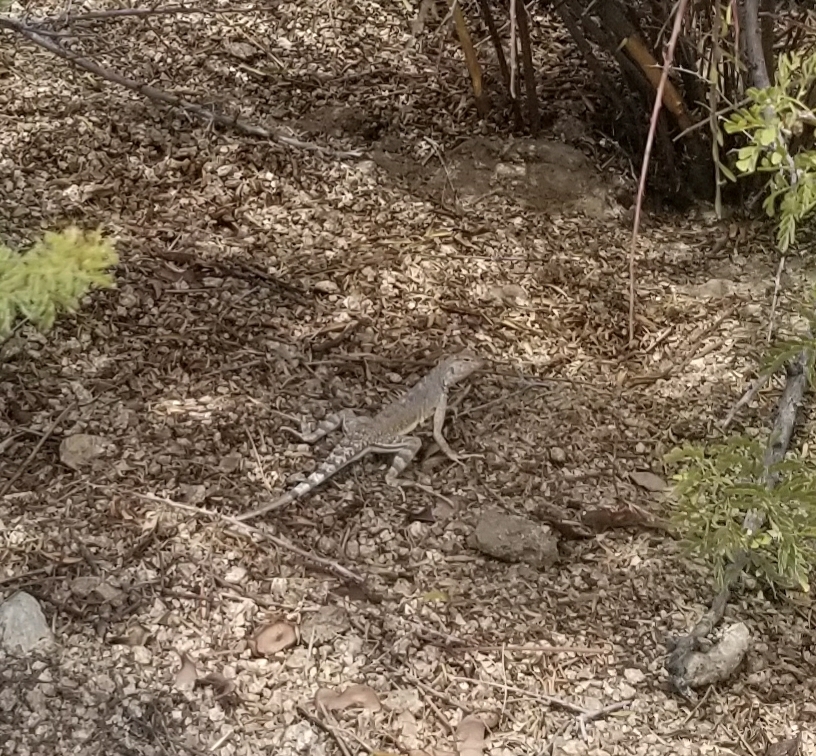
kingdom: Animalia
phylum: Chordata
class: Squamata
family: Phrynosomatidae
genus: Callisaurus
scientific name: Callisaurus draconoides
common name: Zebra-tailed lizard
